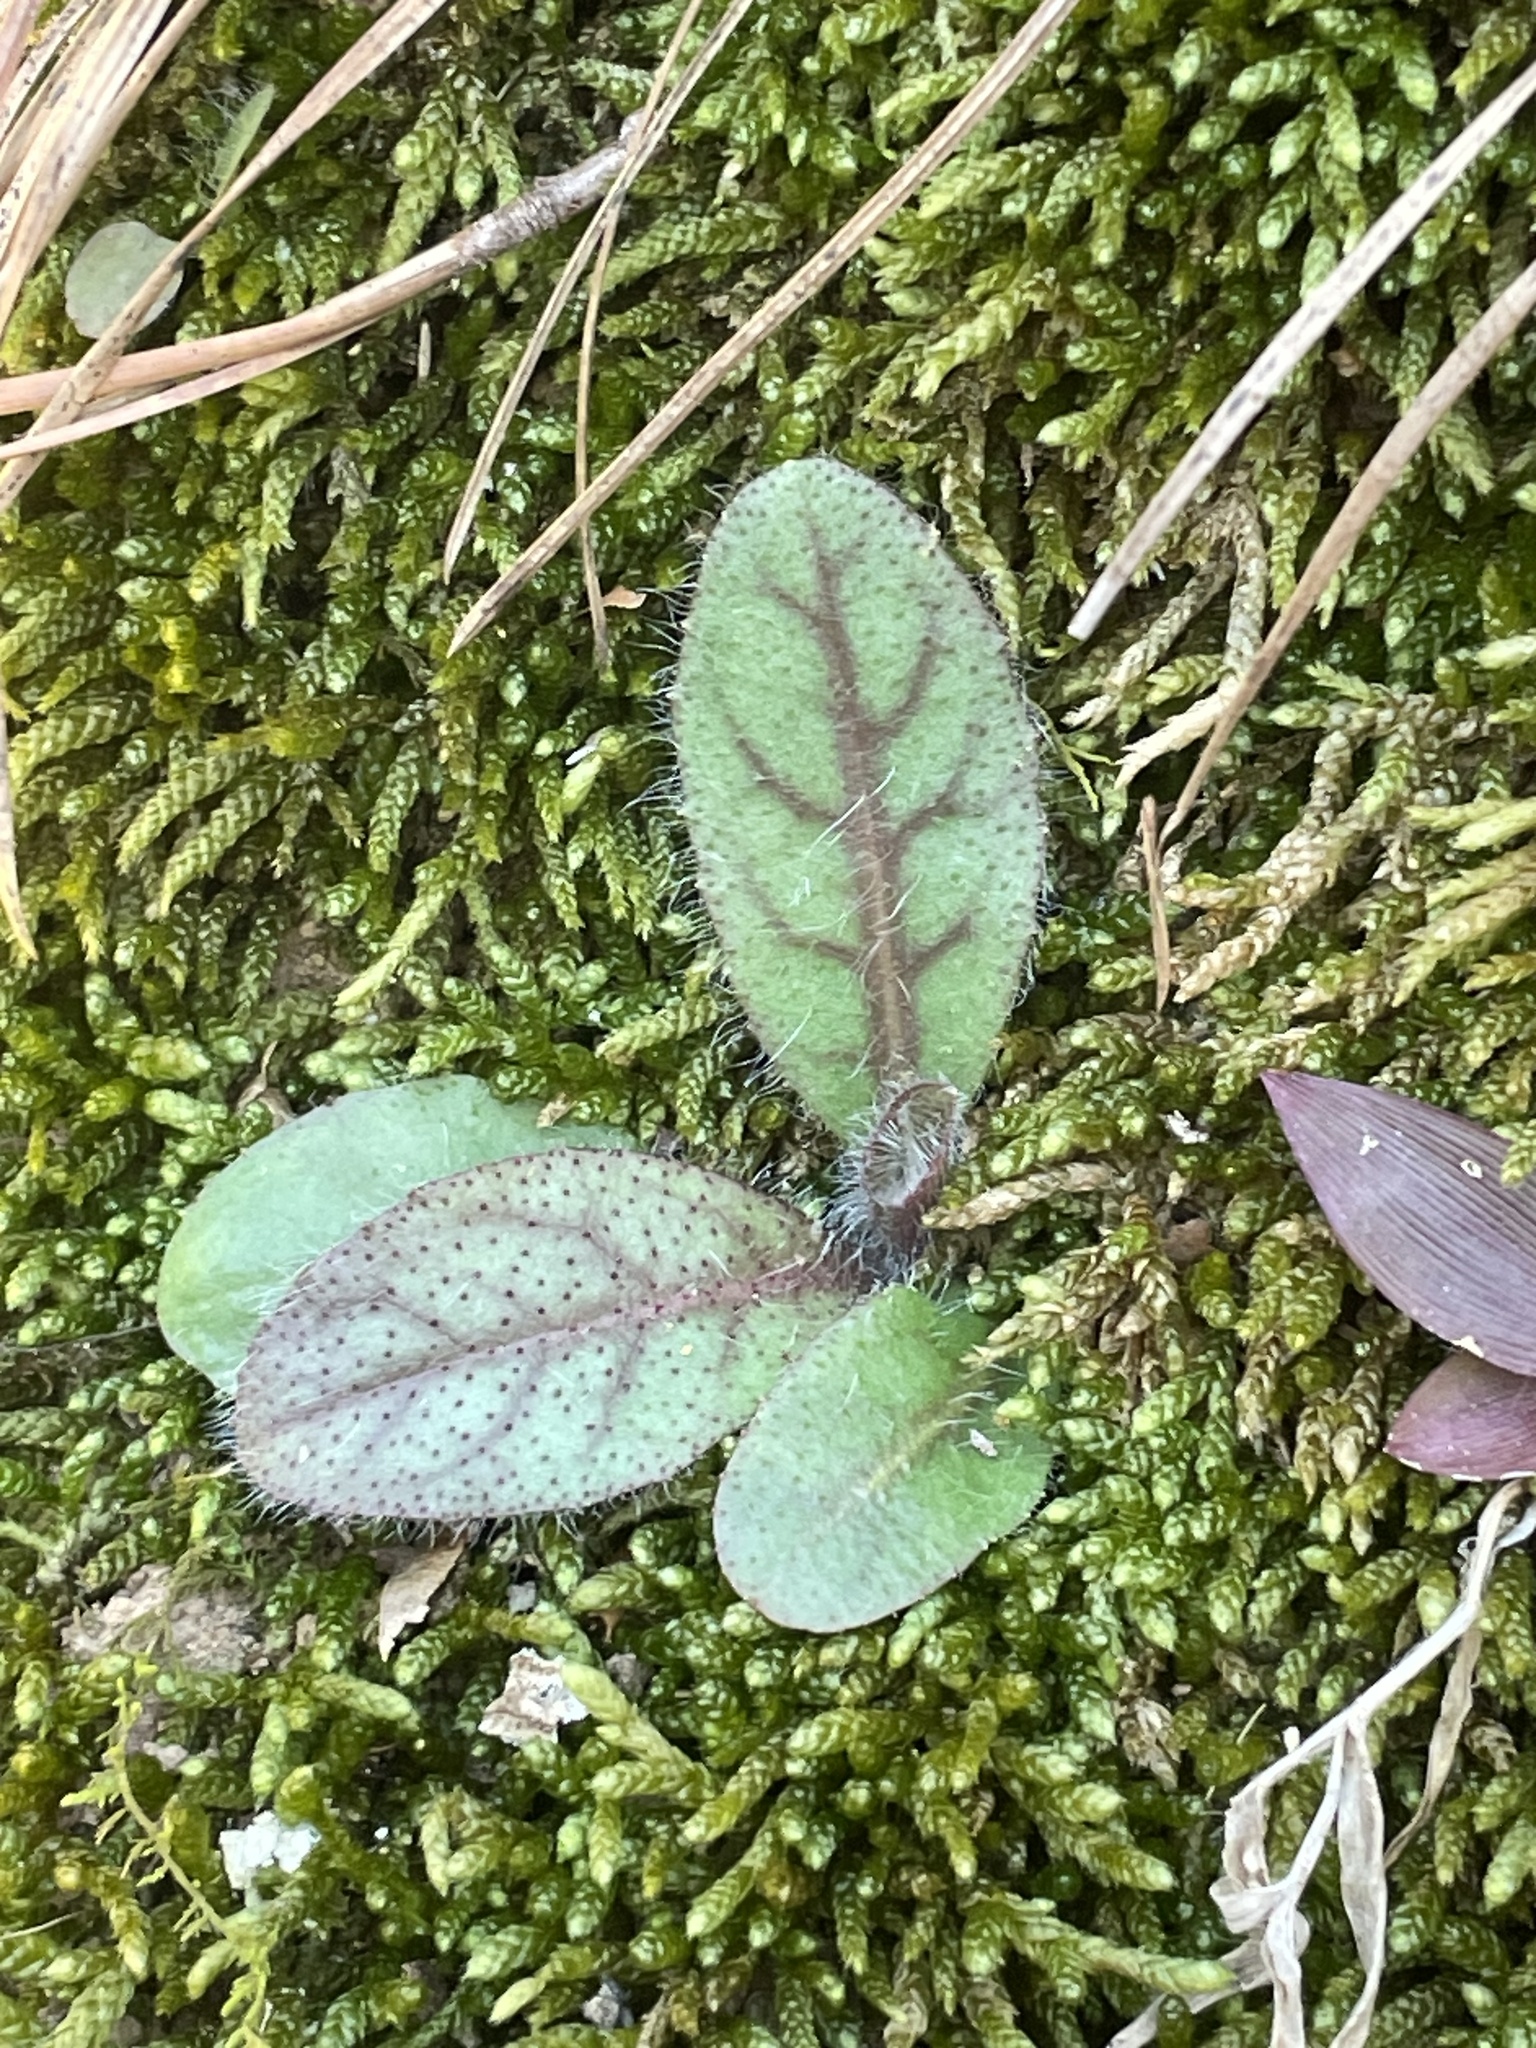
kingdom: Plantae
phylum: Tracheophyta
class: Magnoliopsida
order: Asterales
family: Asteraceae
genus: Hieracium
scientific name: Hieracium venosum
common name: Rattlesnake hawkweed
